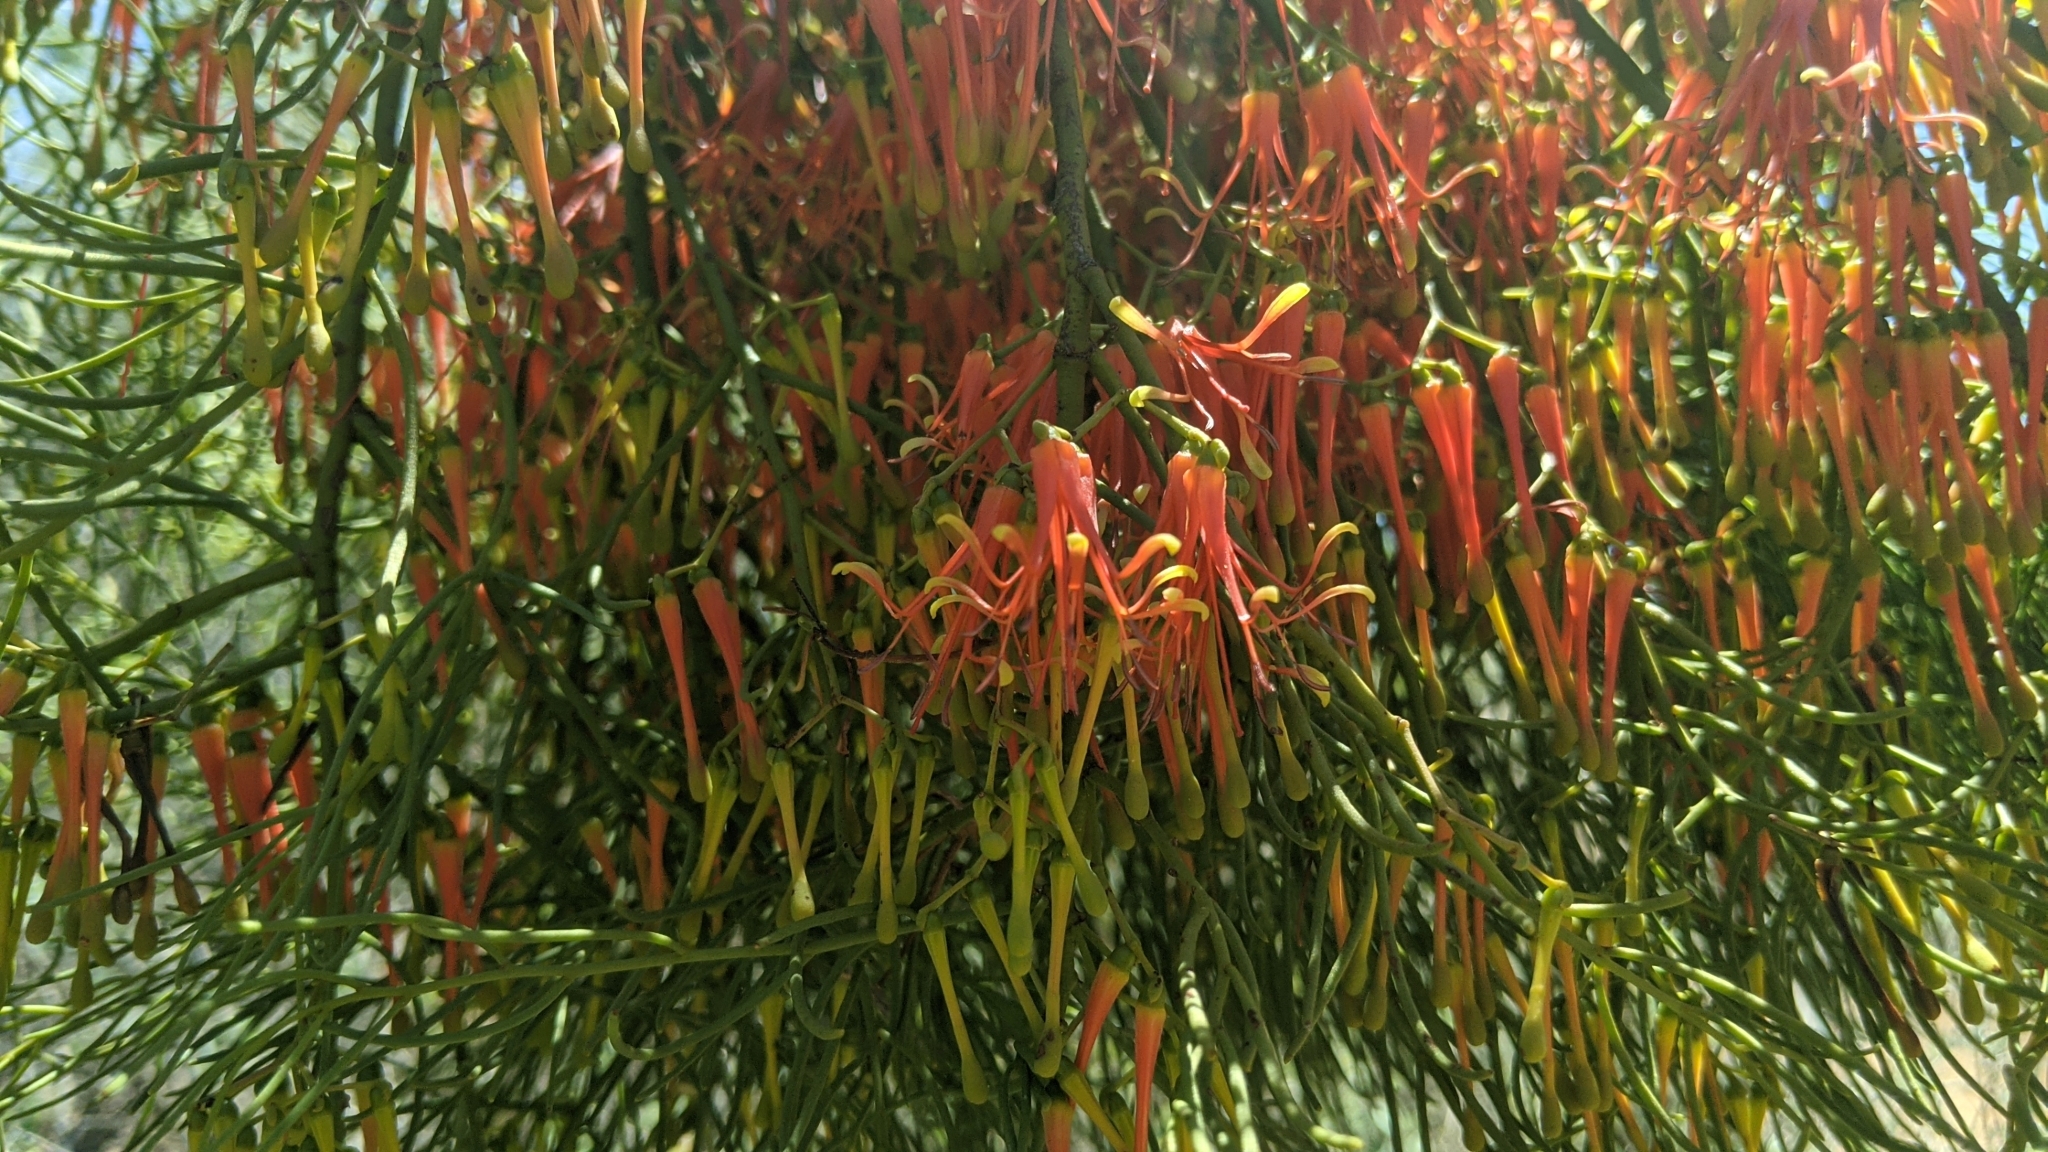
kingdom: Plantae
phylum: Tracheophyta
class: Magnoliopsida
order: Santalales
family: Loranthaceae
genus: Amyema
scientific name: Amyema preissii
